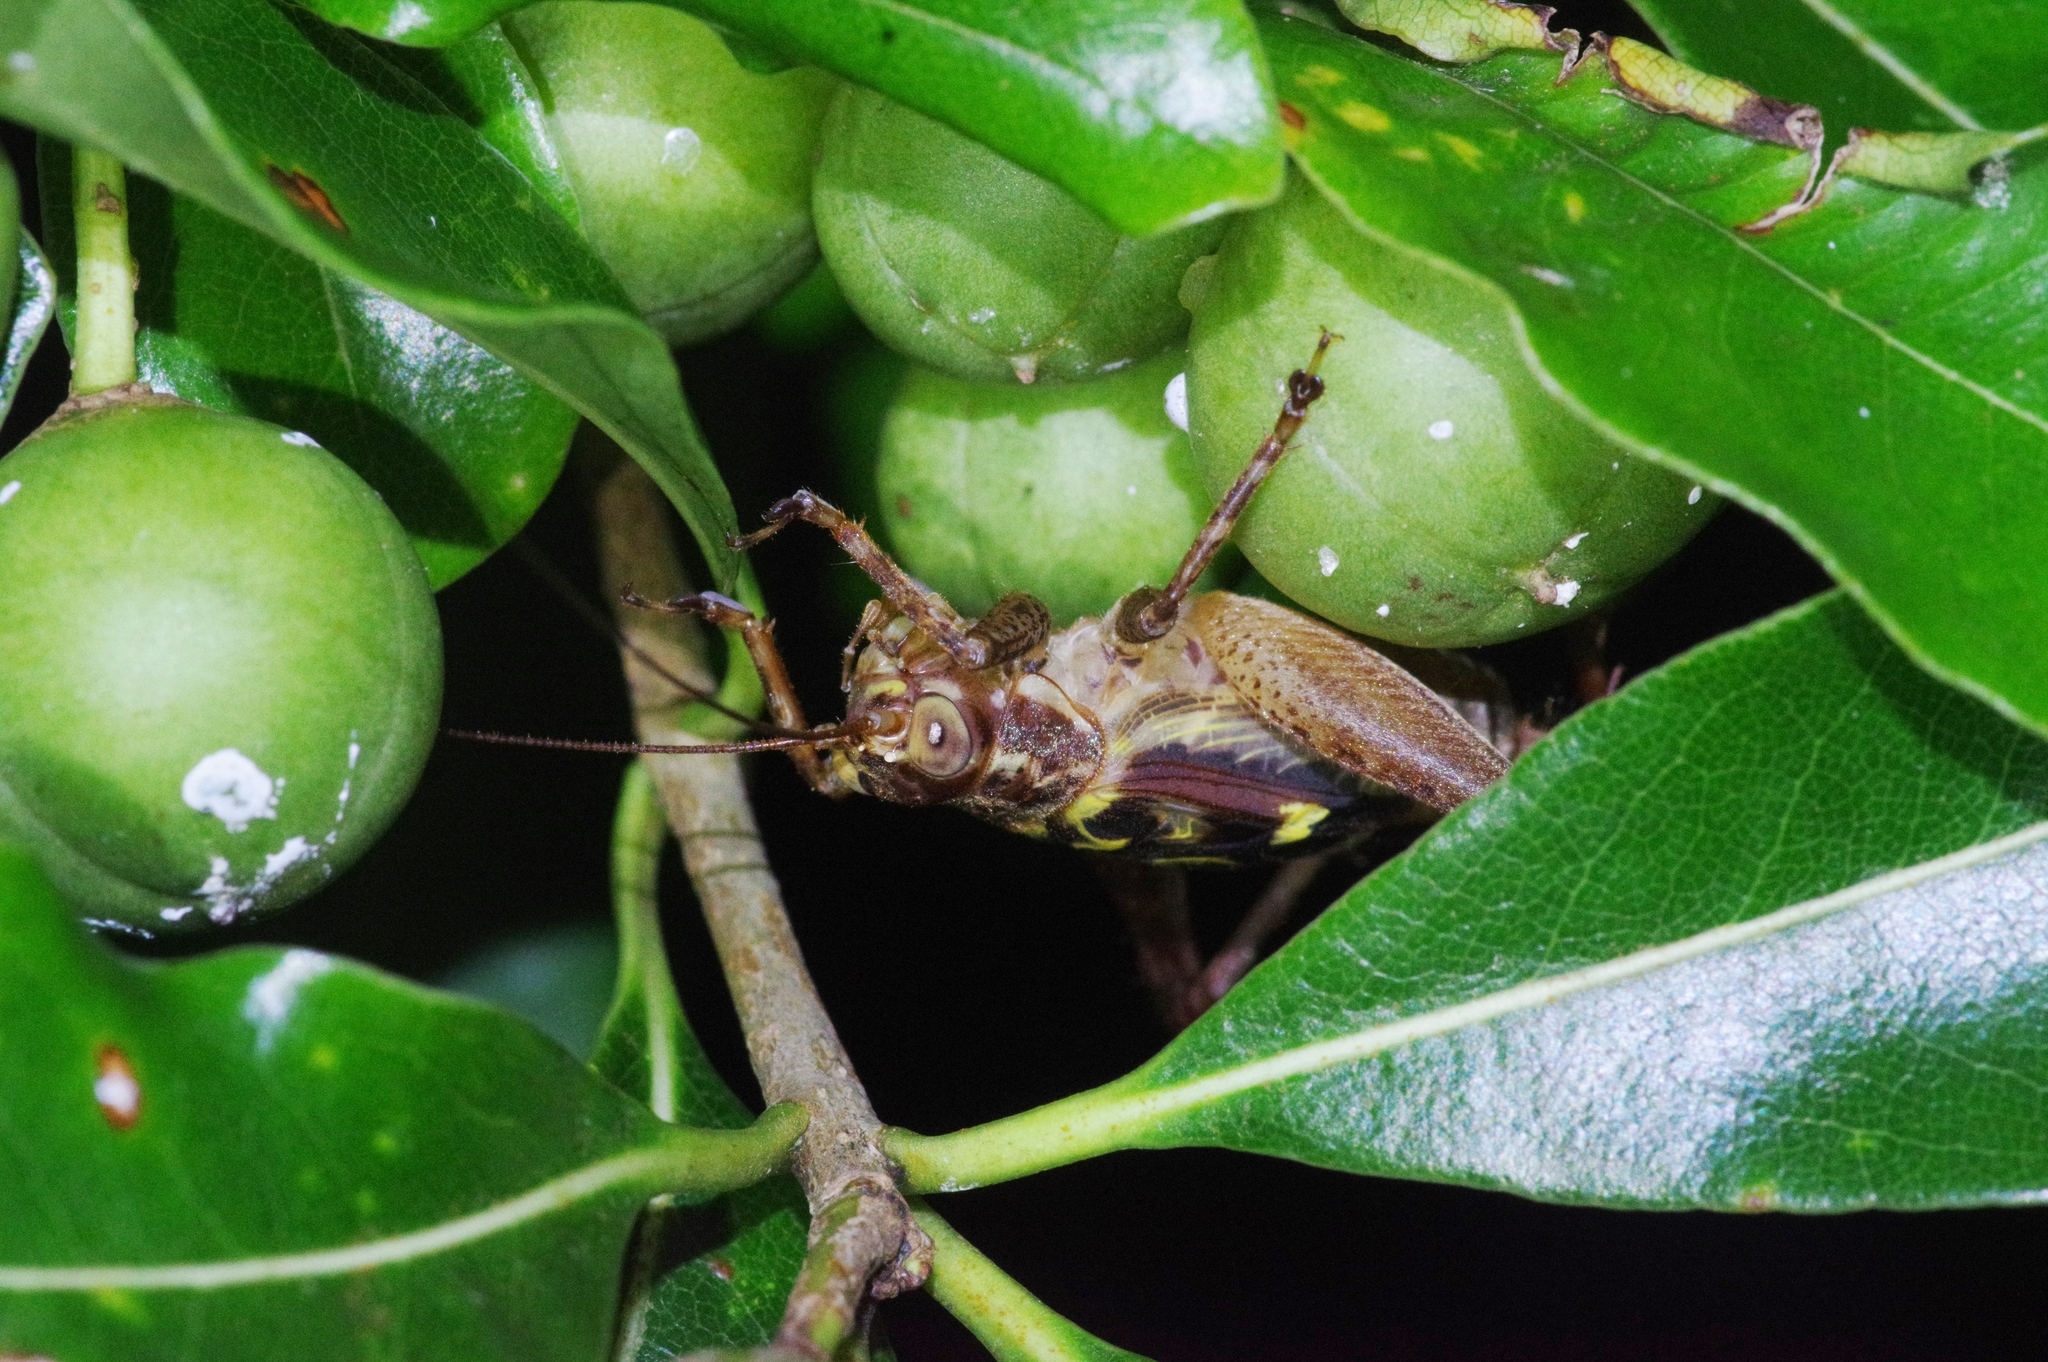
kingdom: Animalia
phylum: Arthropoda
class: Insecta
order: Orthoptera
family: Gryllidae
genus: Cardiodactylus
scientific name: Cardiodactylus guttulus
